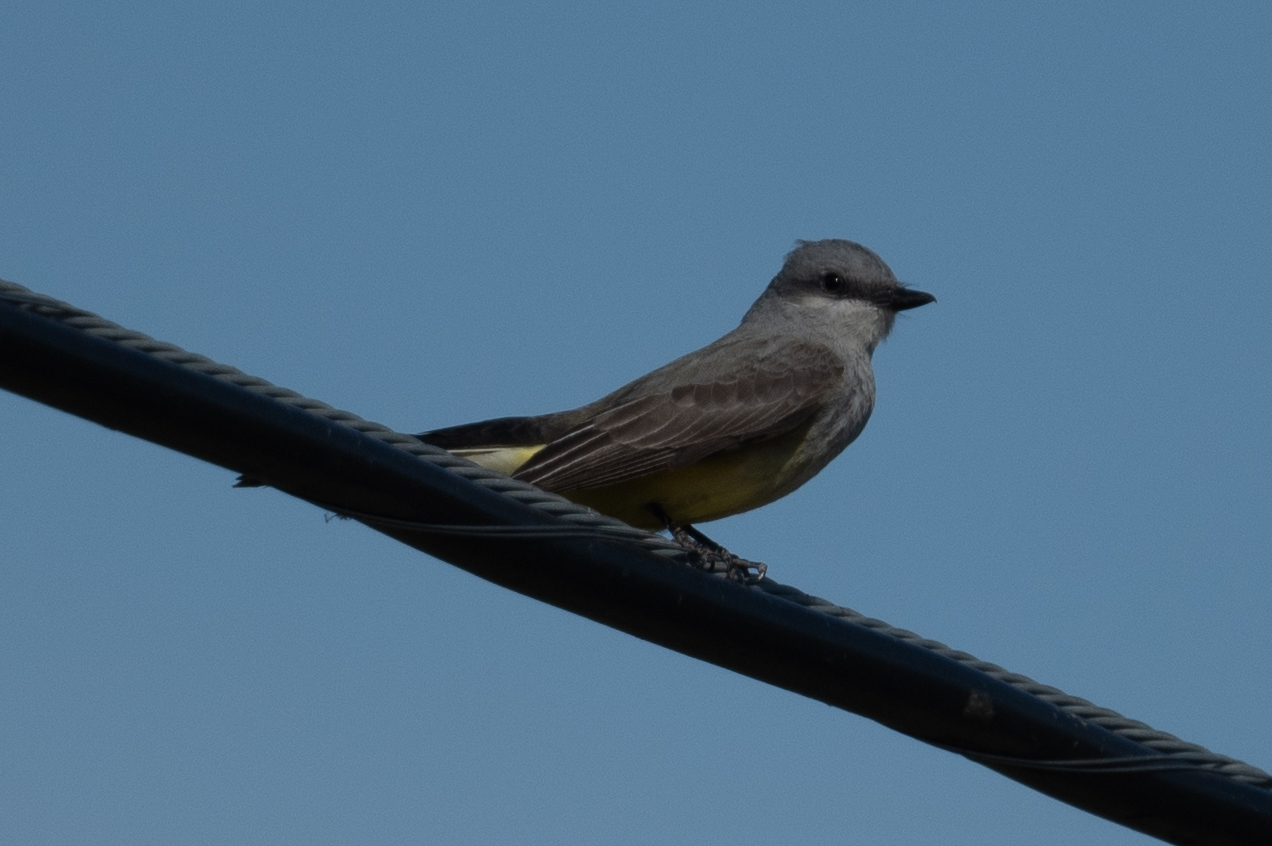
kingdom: Animalia
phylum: Chordata
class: Aves
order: Passeriformes
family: Tyrannidae
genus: Tyrannus
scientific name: Tyrannus verticalis
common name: Western kingbird
